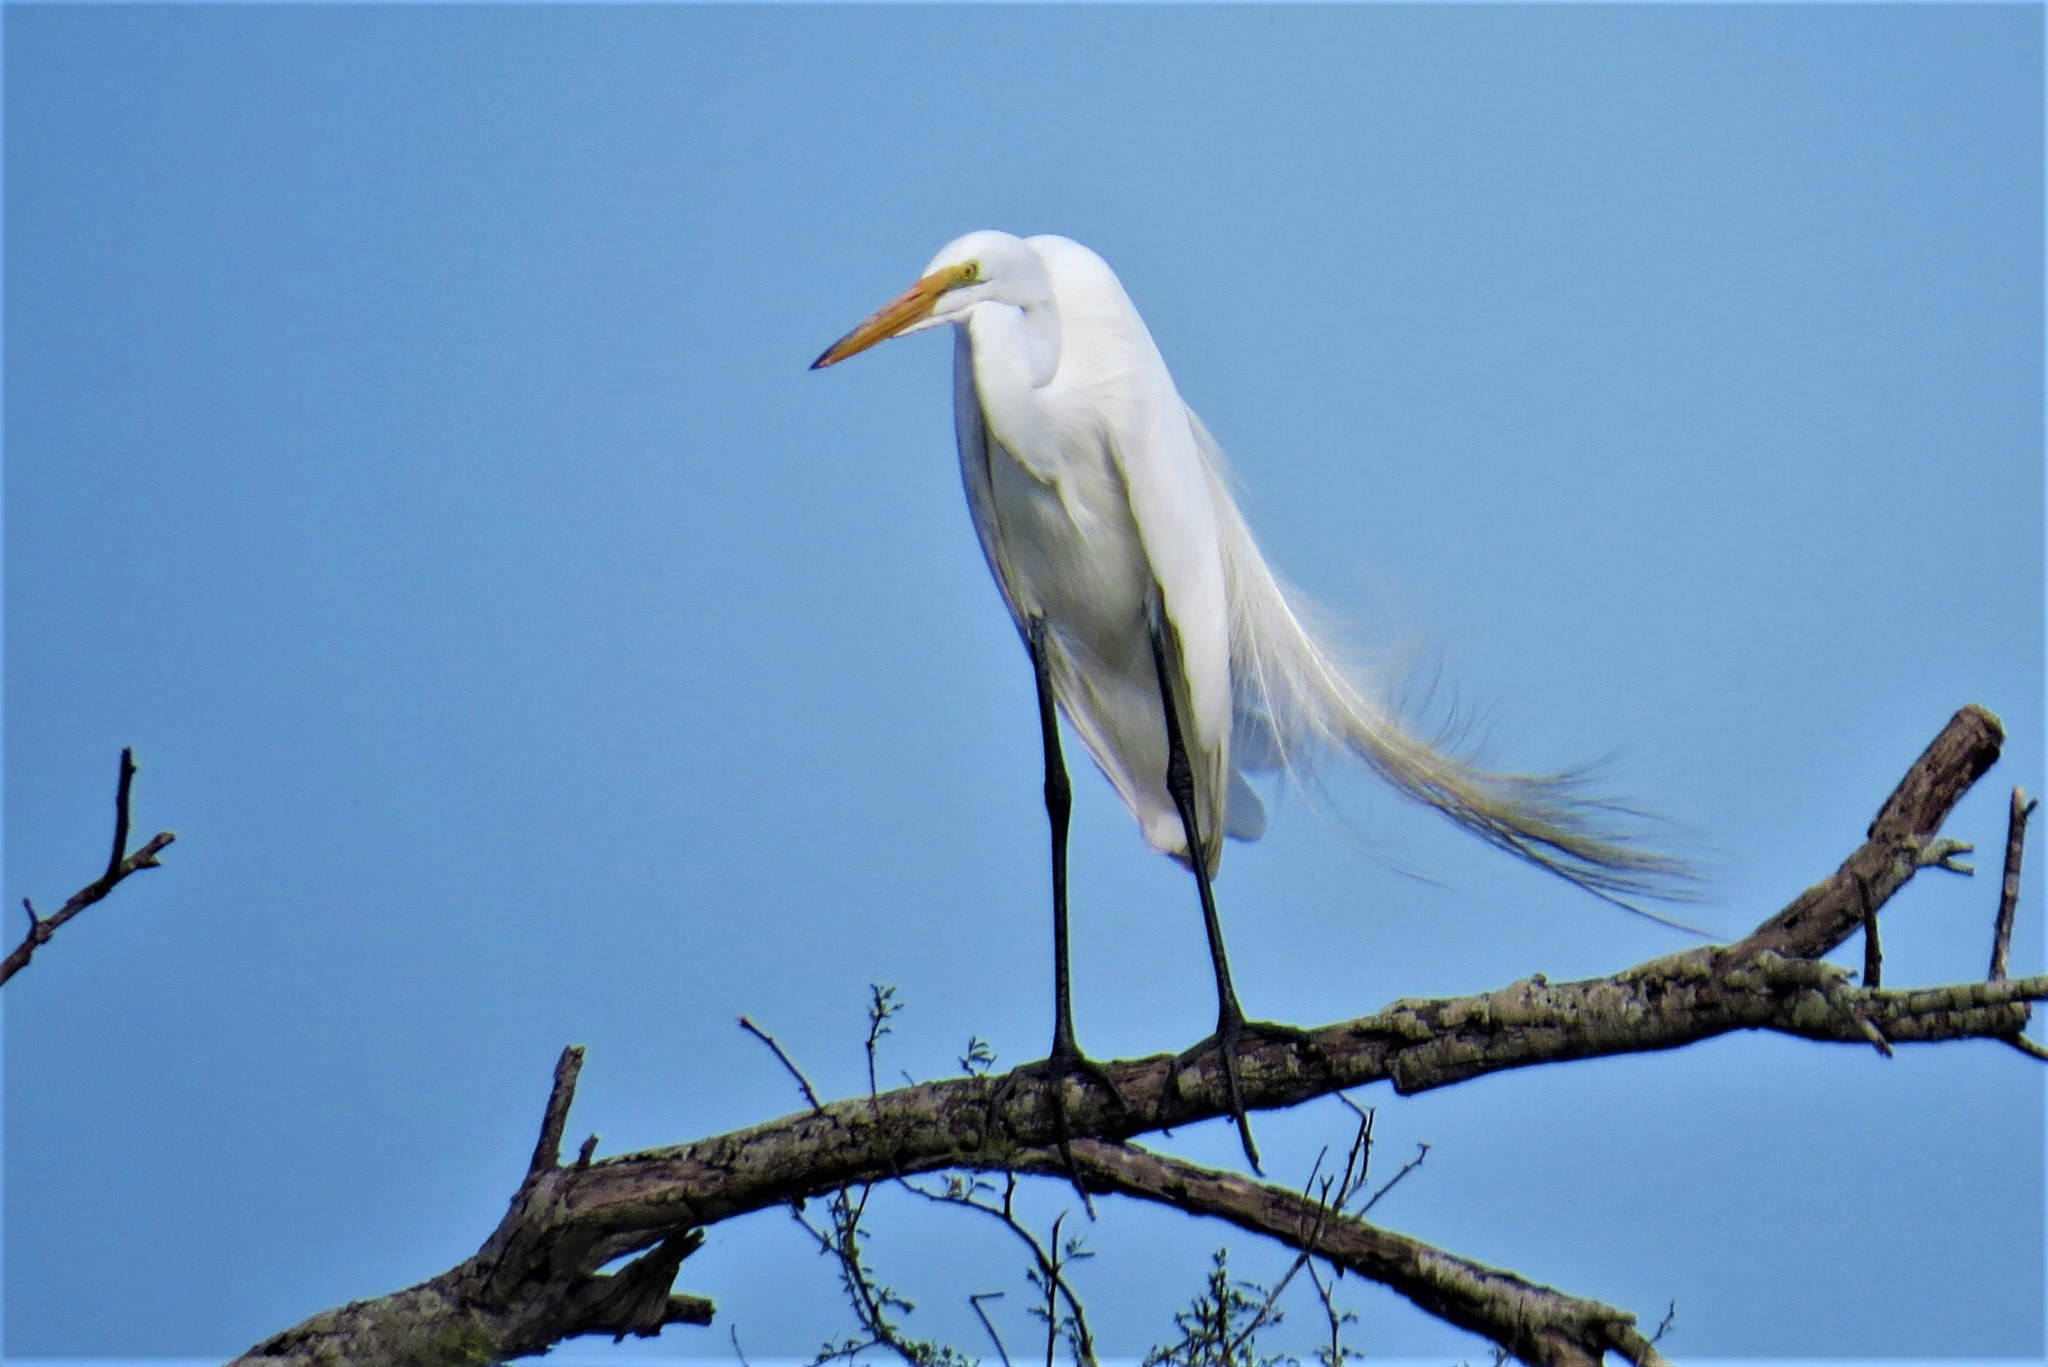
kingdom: Animalia
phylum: Chordata
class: Aves
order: Pelecaniformes
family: Ardeidae
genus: Ardea
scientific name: Ardea alba
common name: Great egret
